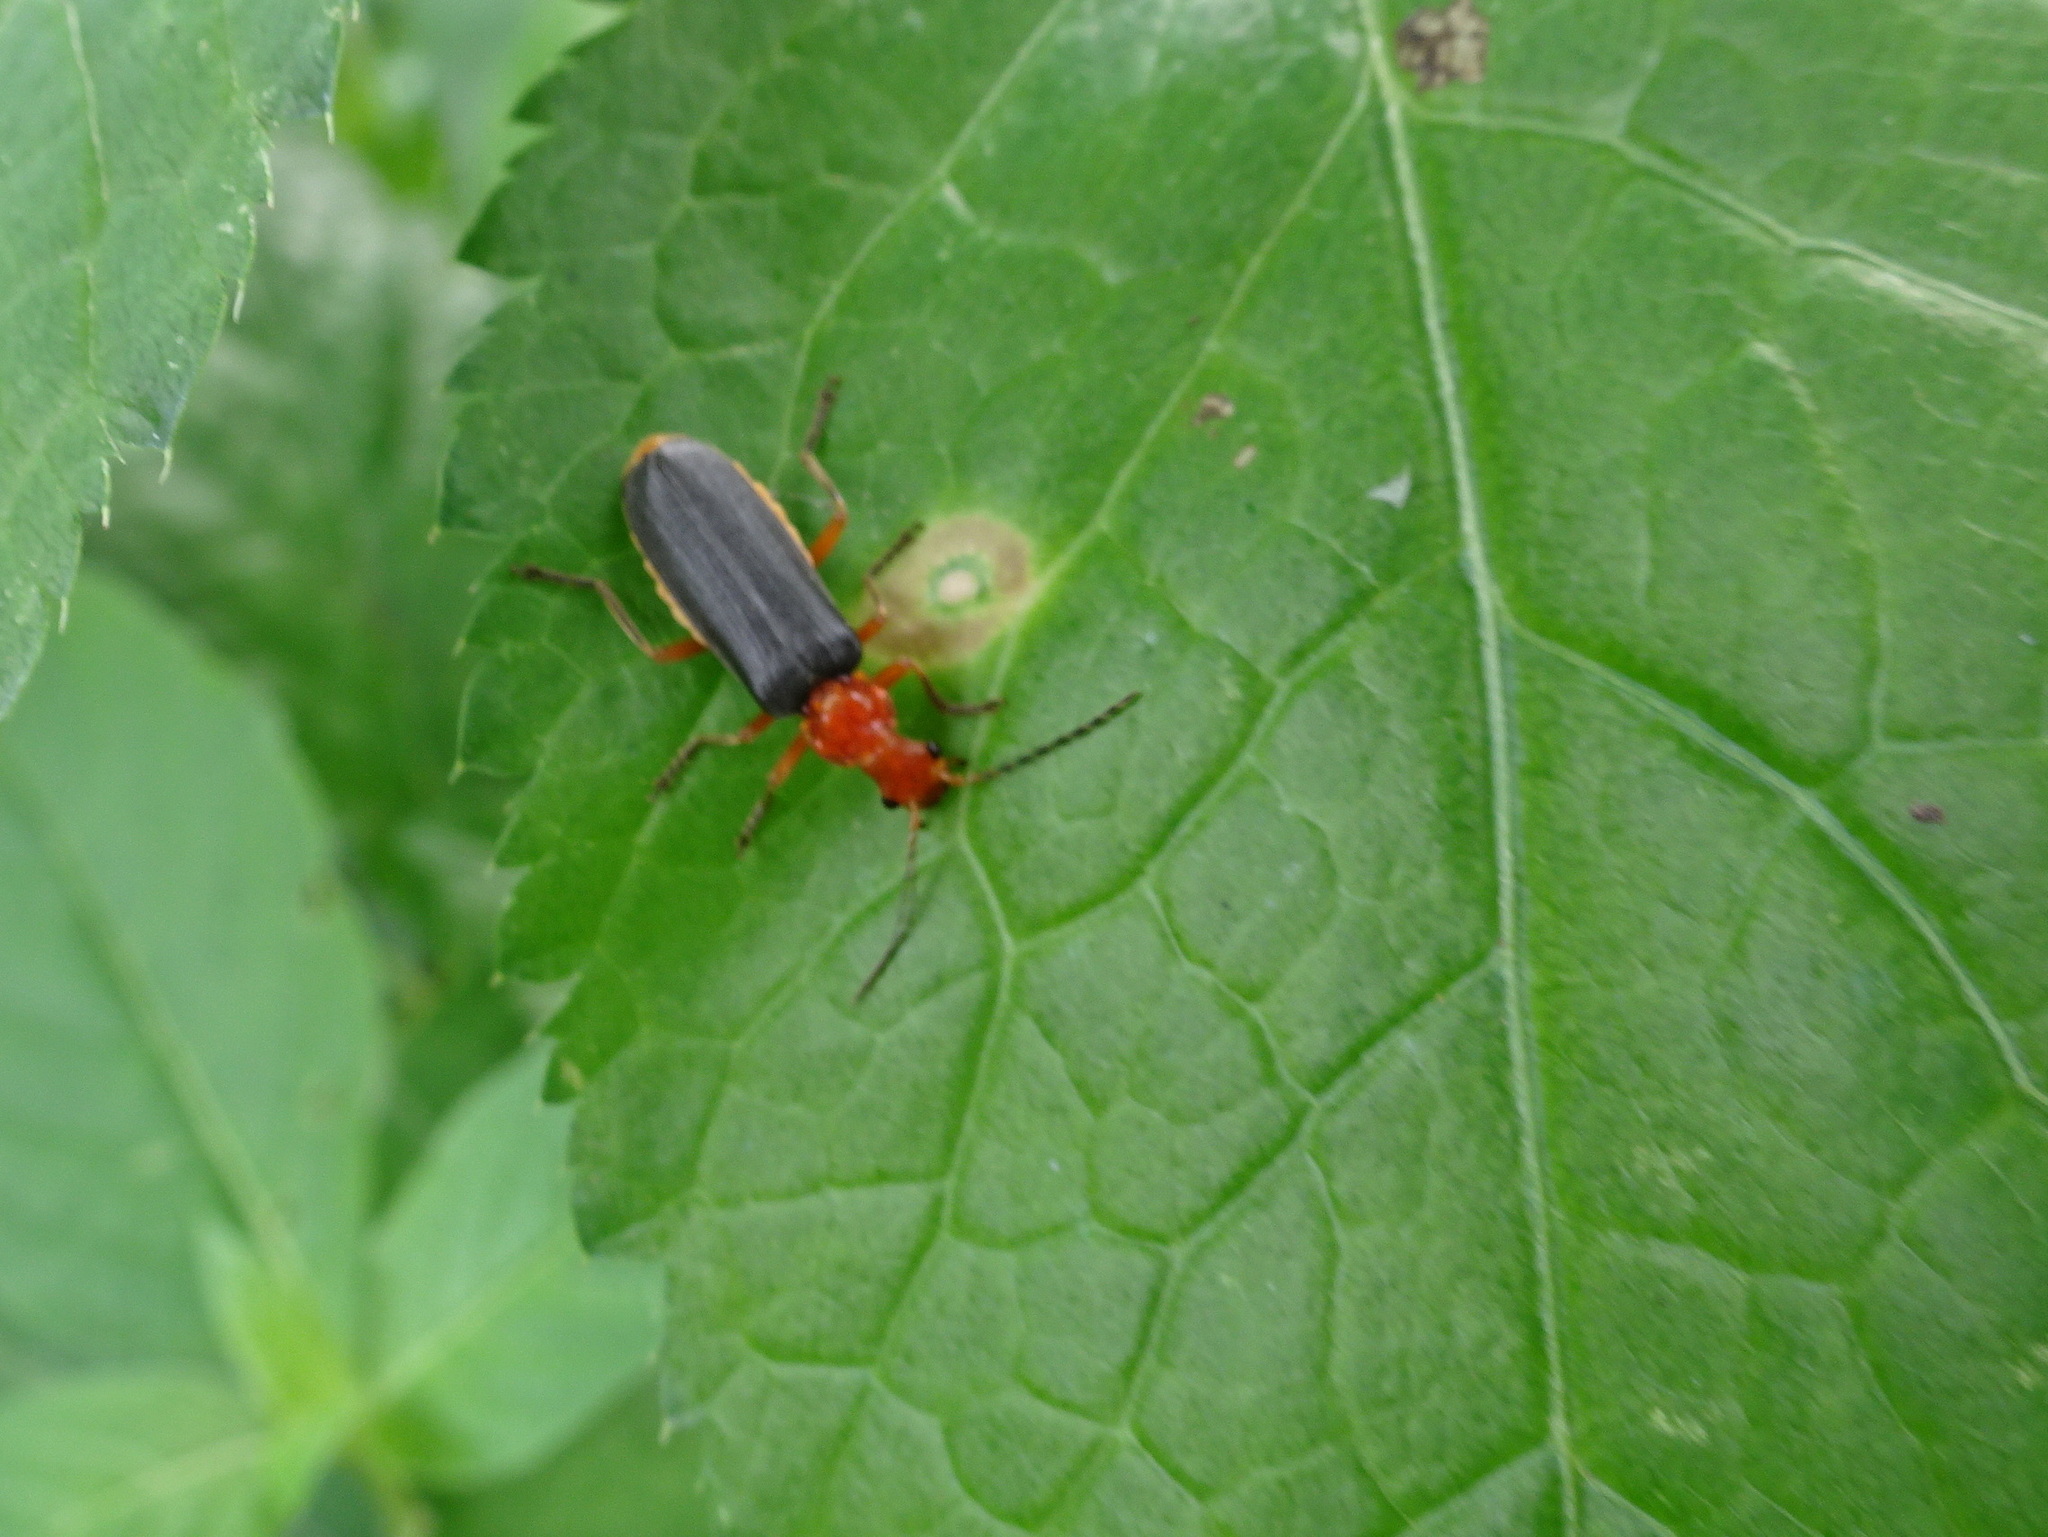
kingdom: Animalia
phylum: Arthropoda
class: Insecta
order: Coleoptera
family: Cantharidae
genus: Podabrus
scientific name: Podabrus tomentosus
